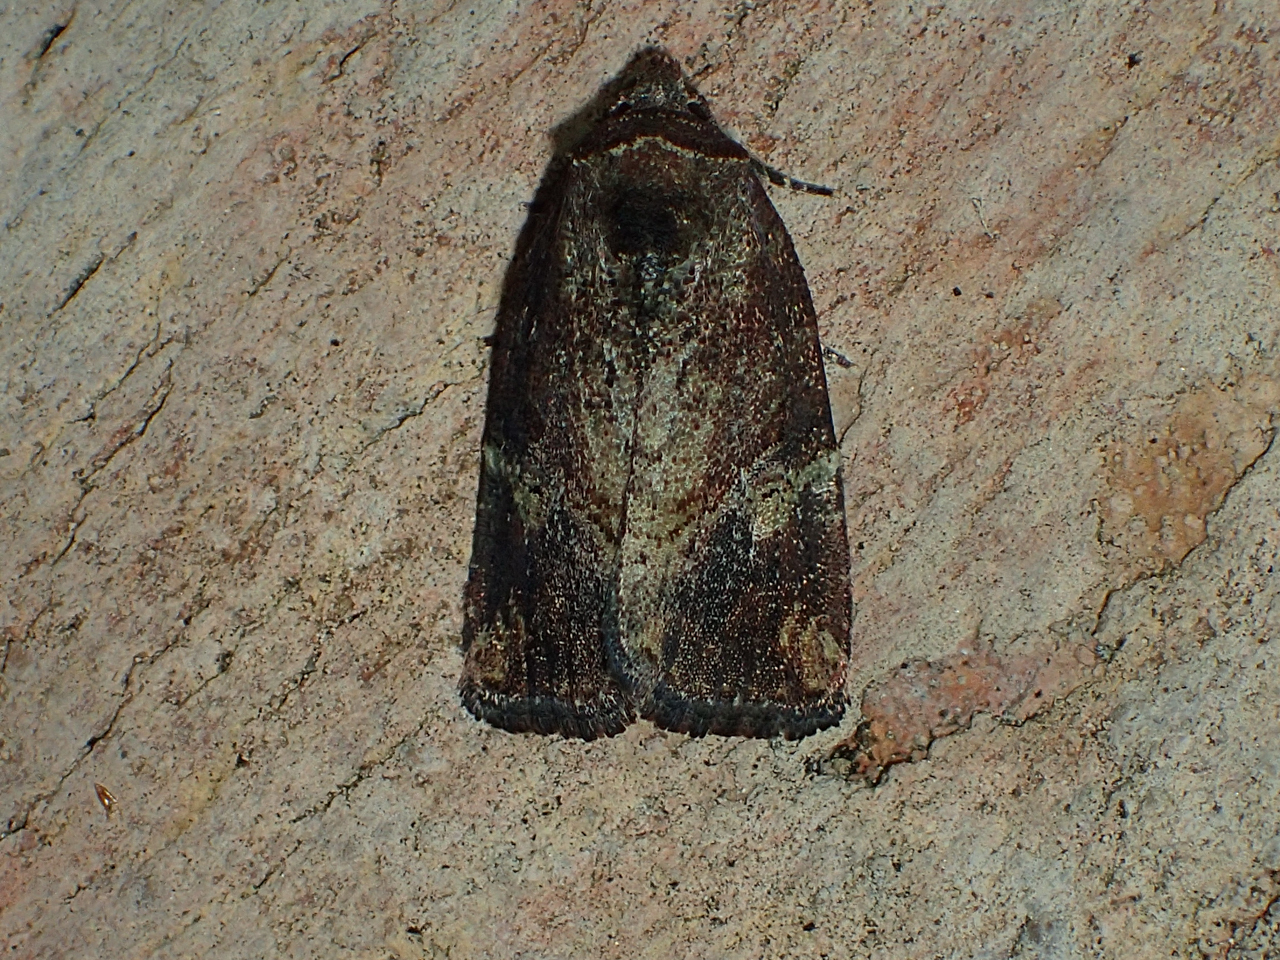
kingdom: Animalia
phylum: Arthropoda
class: Insecta
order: Lepidoptera
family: Noctuidae
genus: Elaphria
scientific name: Elaphria versicolor
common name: Fir harlequin
